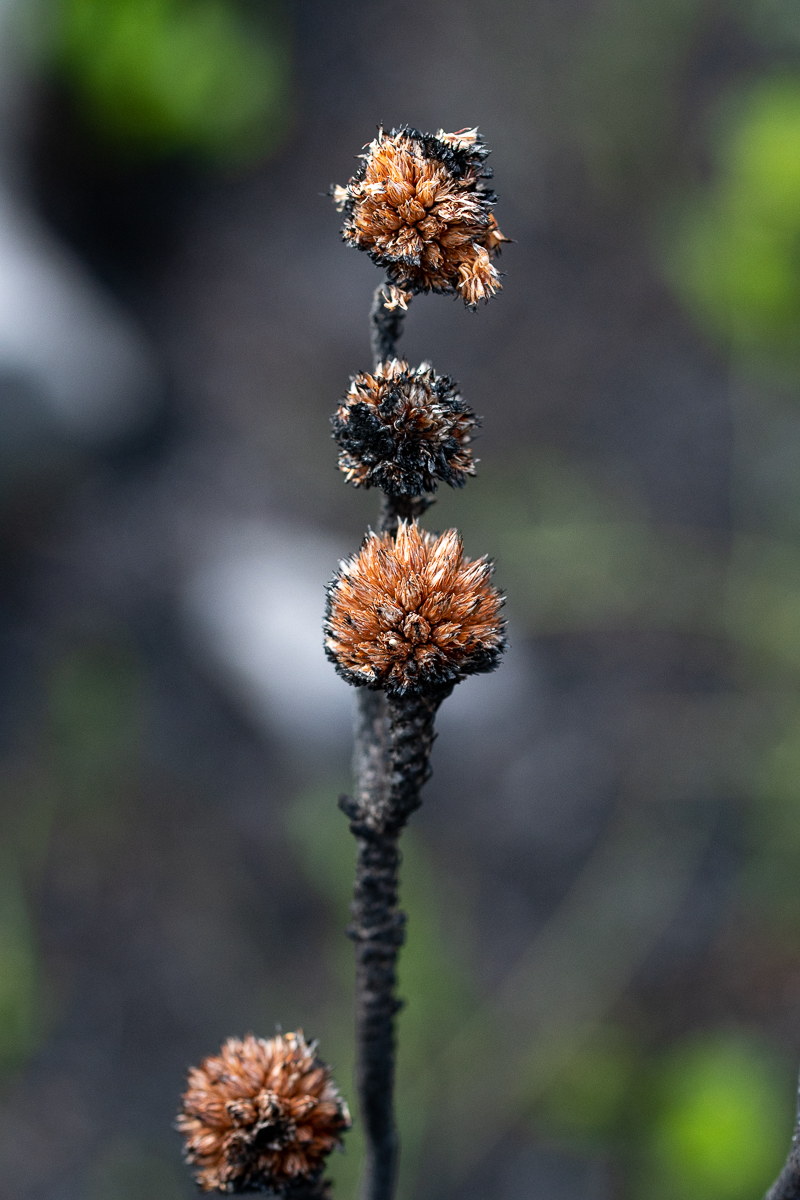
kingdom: Plantae
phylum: Tracheophyta
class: Magnoliopsida
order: Bruniales
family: Bruniaceae
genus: Brunia
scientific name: Brunia fragarioides
